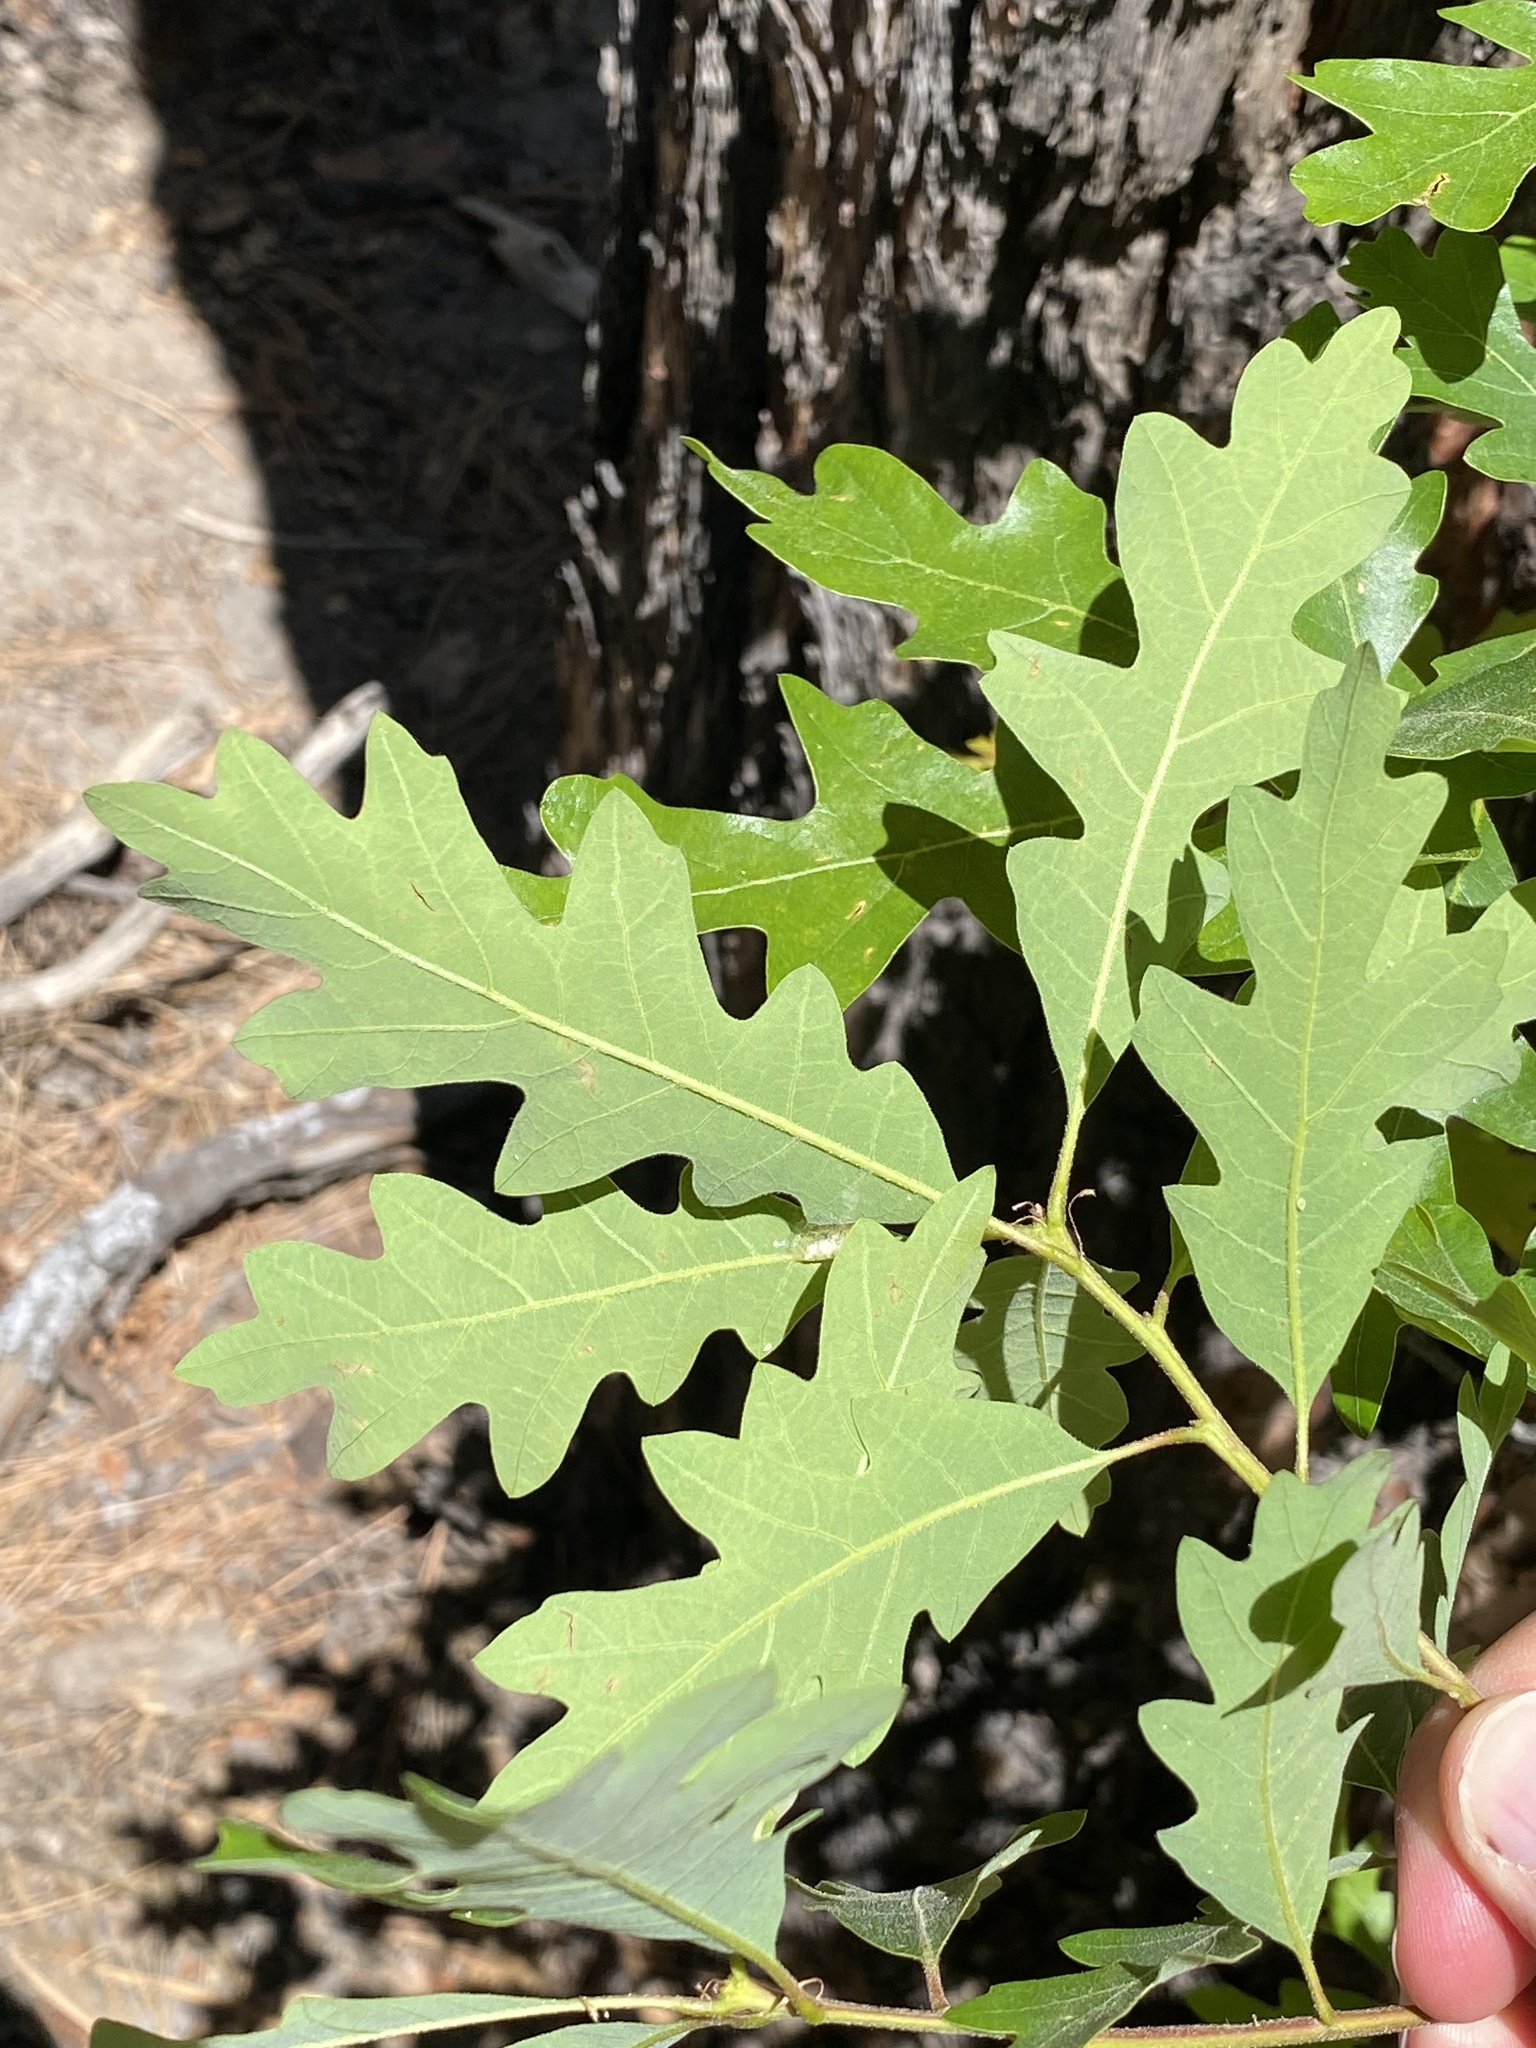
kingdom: Plantae
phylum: Tracheophyta
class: Magnoliopsida
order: Fagales
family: Fagaceae
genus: Quercus
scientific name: Quercus gambelii
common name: Gambel oak
